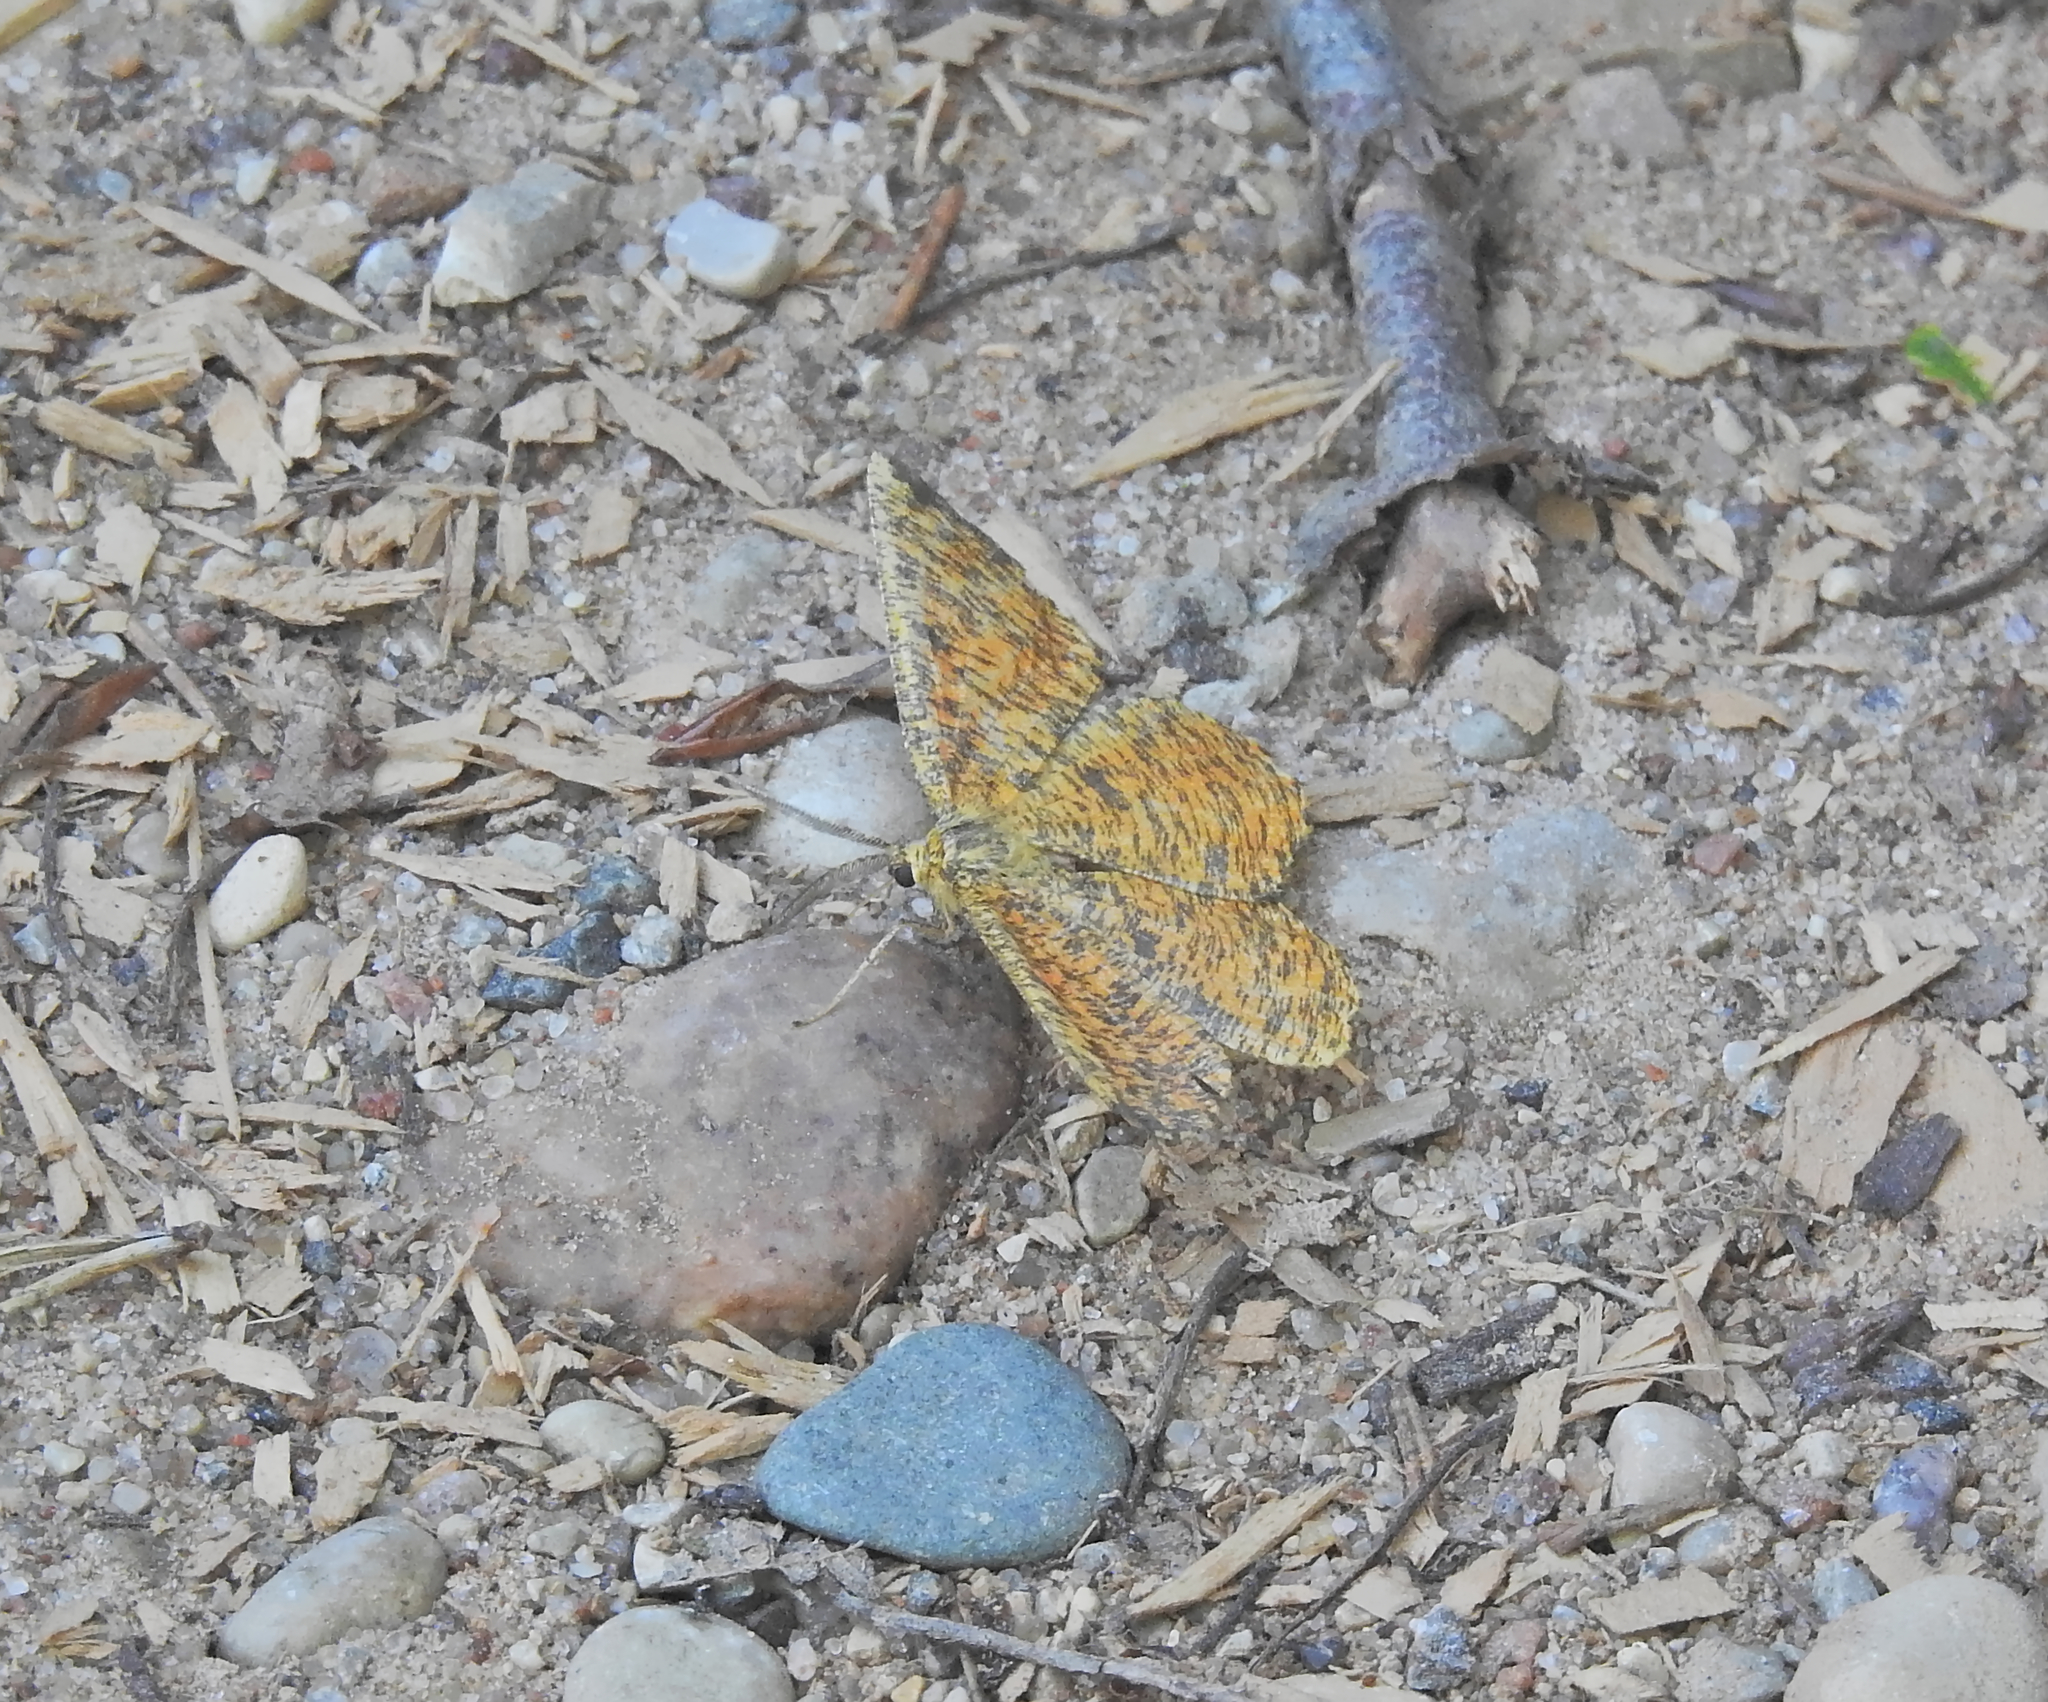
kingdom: Animalia
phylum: Arthropoda
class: Insecta
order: Lepidoptera
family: Geometridae
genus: Angerona
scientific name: Angerona prunaria
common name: Orange moth
